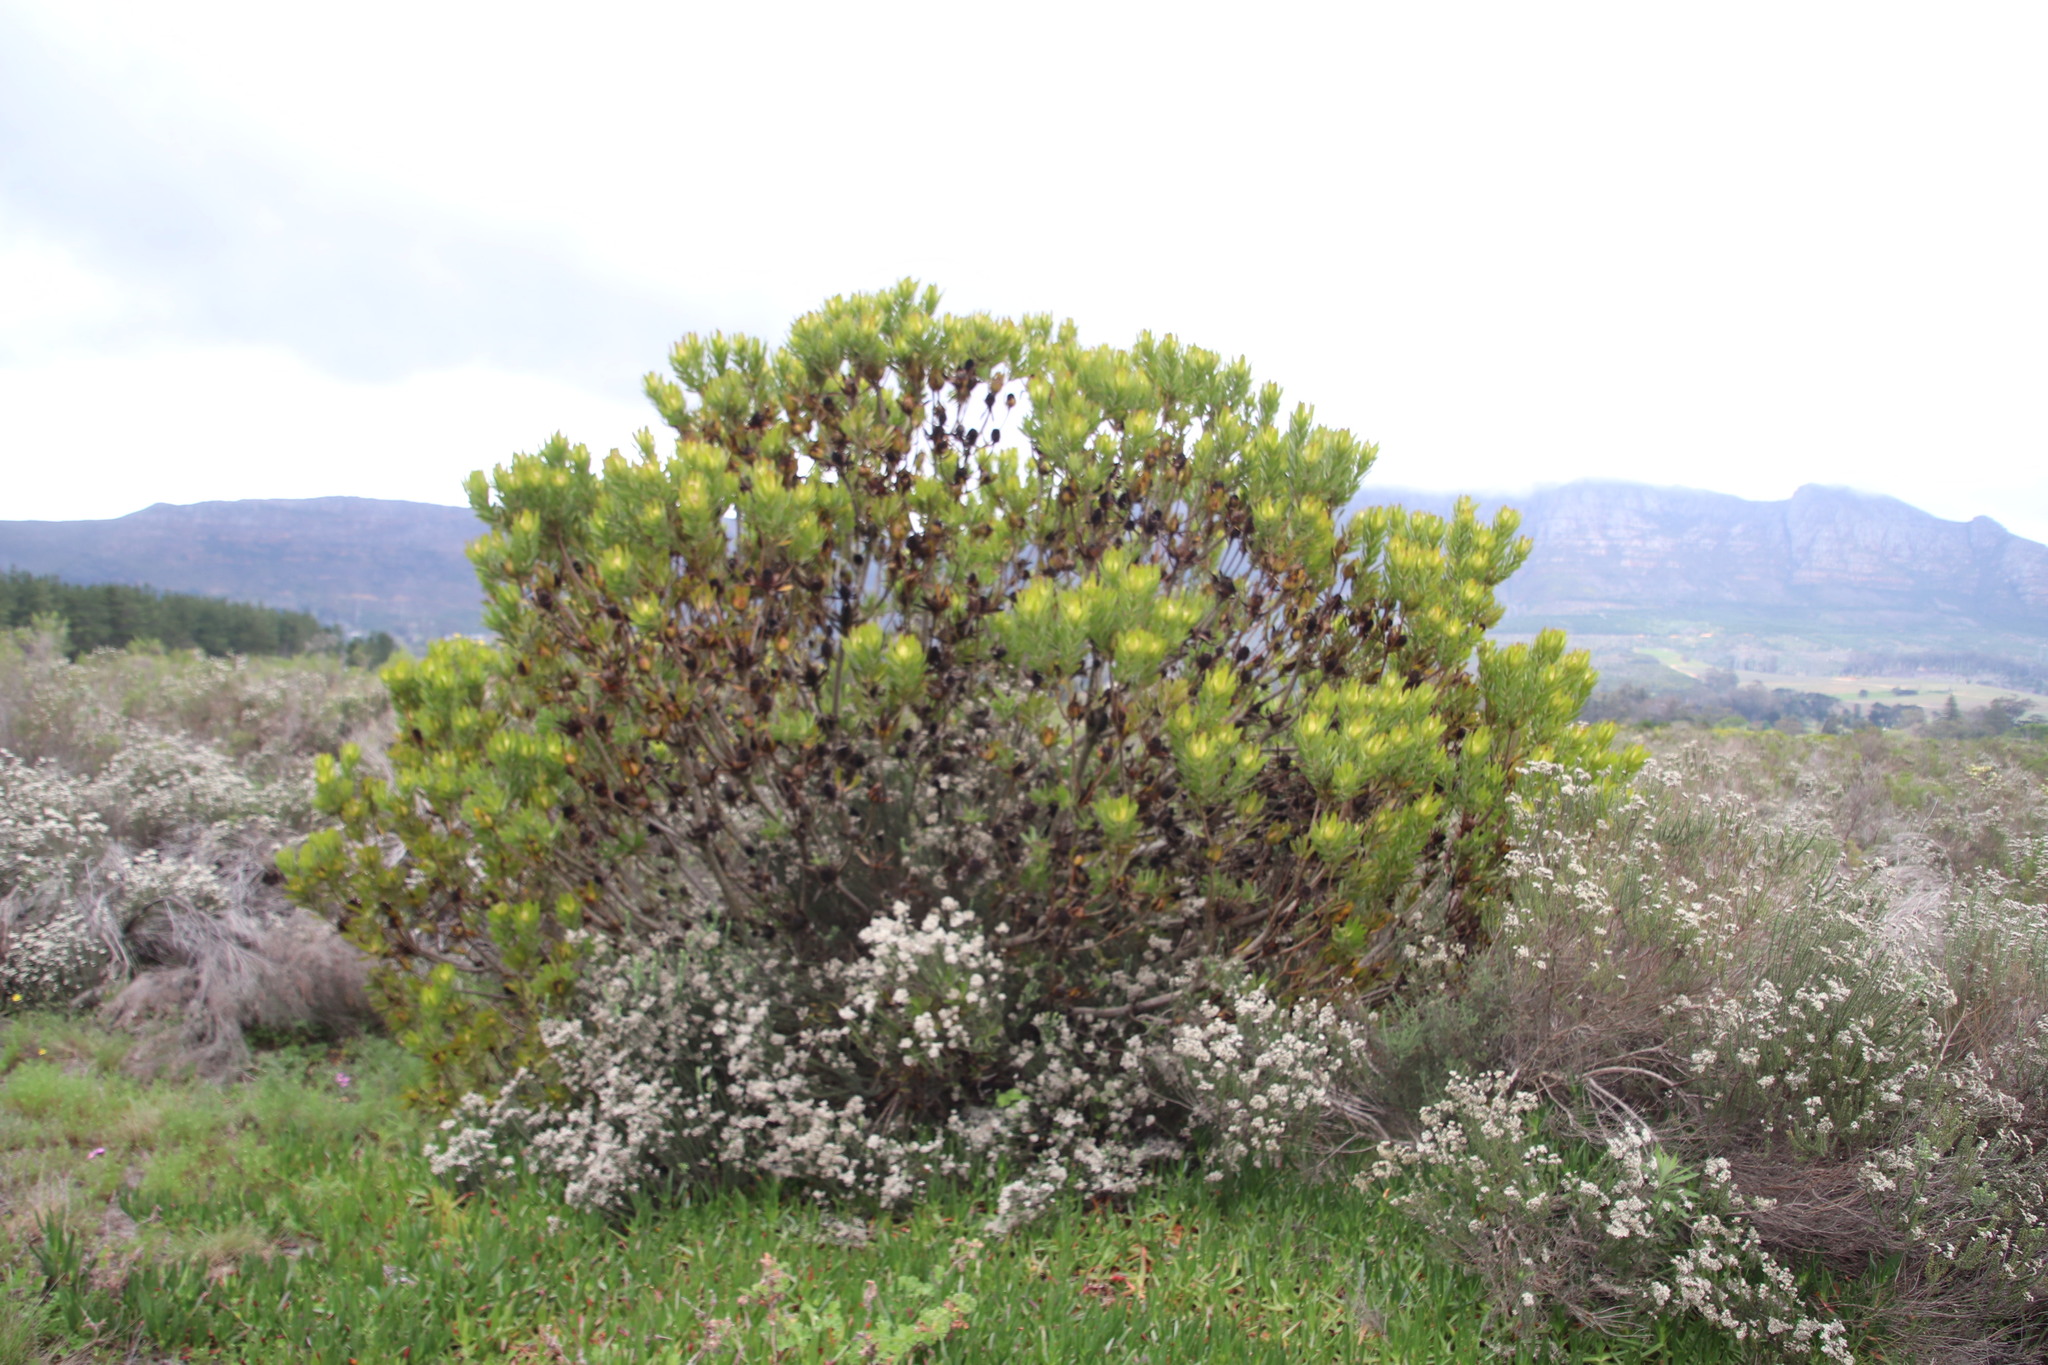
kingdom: Plantae
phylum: Tracheophyta
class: Magnoliopsida
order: Proteales
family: Proteaceae
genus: Leucadendron
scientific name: Leucadendron laureolum
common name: Golden sunshinebush
